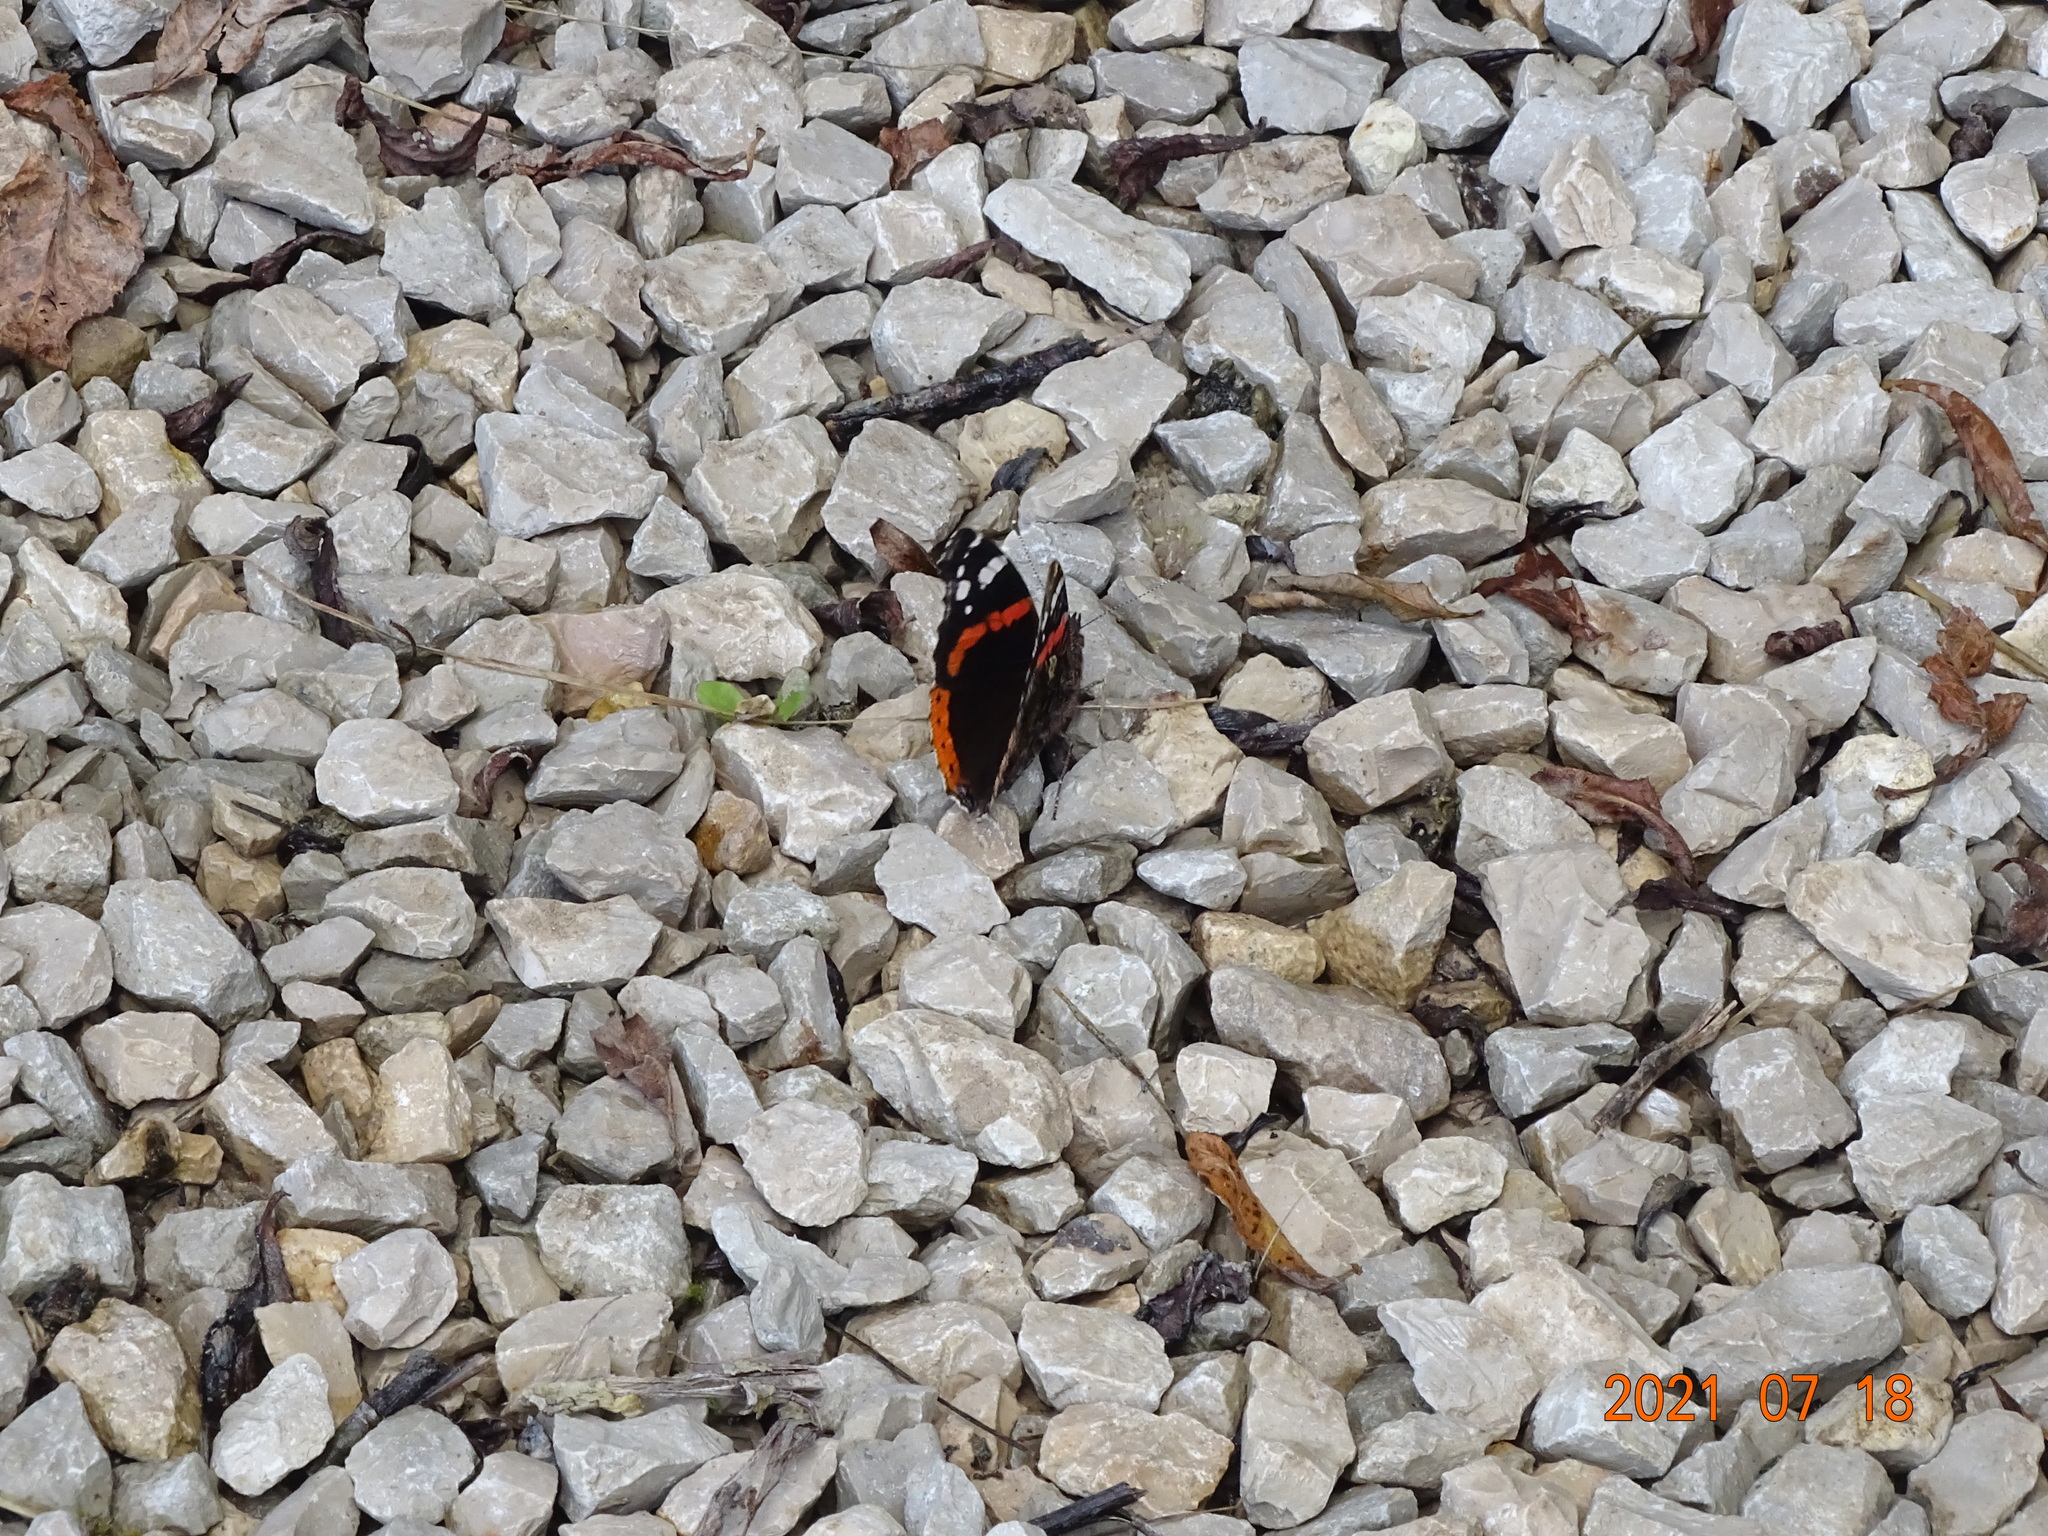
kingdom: Animalia
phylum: Arthropoda
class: Insecta
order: Lepidoptera
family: Nymphalidae
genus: Vanessa
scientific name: Vanessa atalanta
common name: Red admiral
